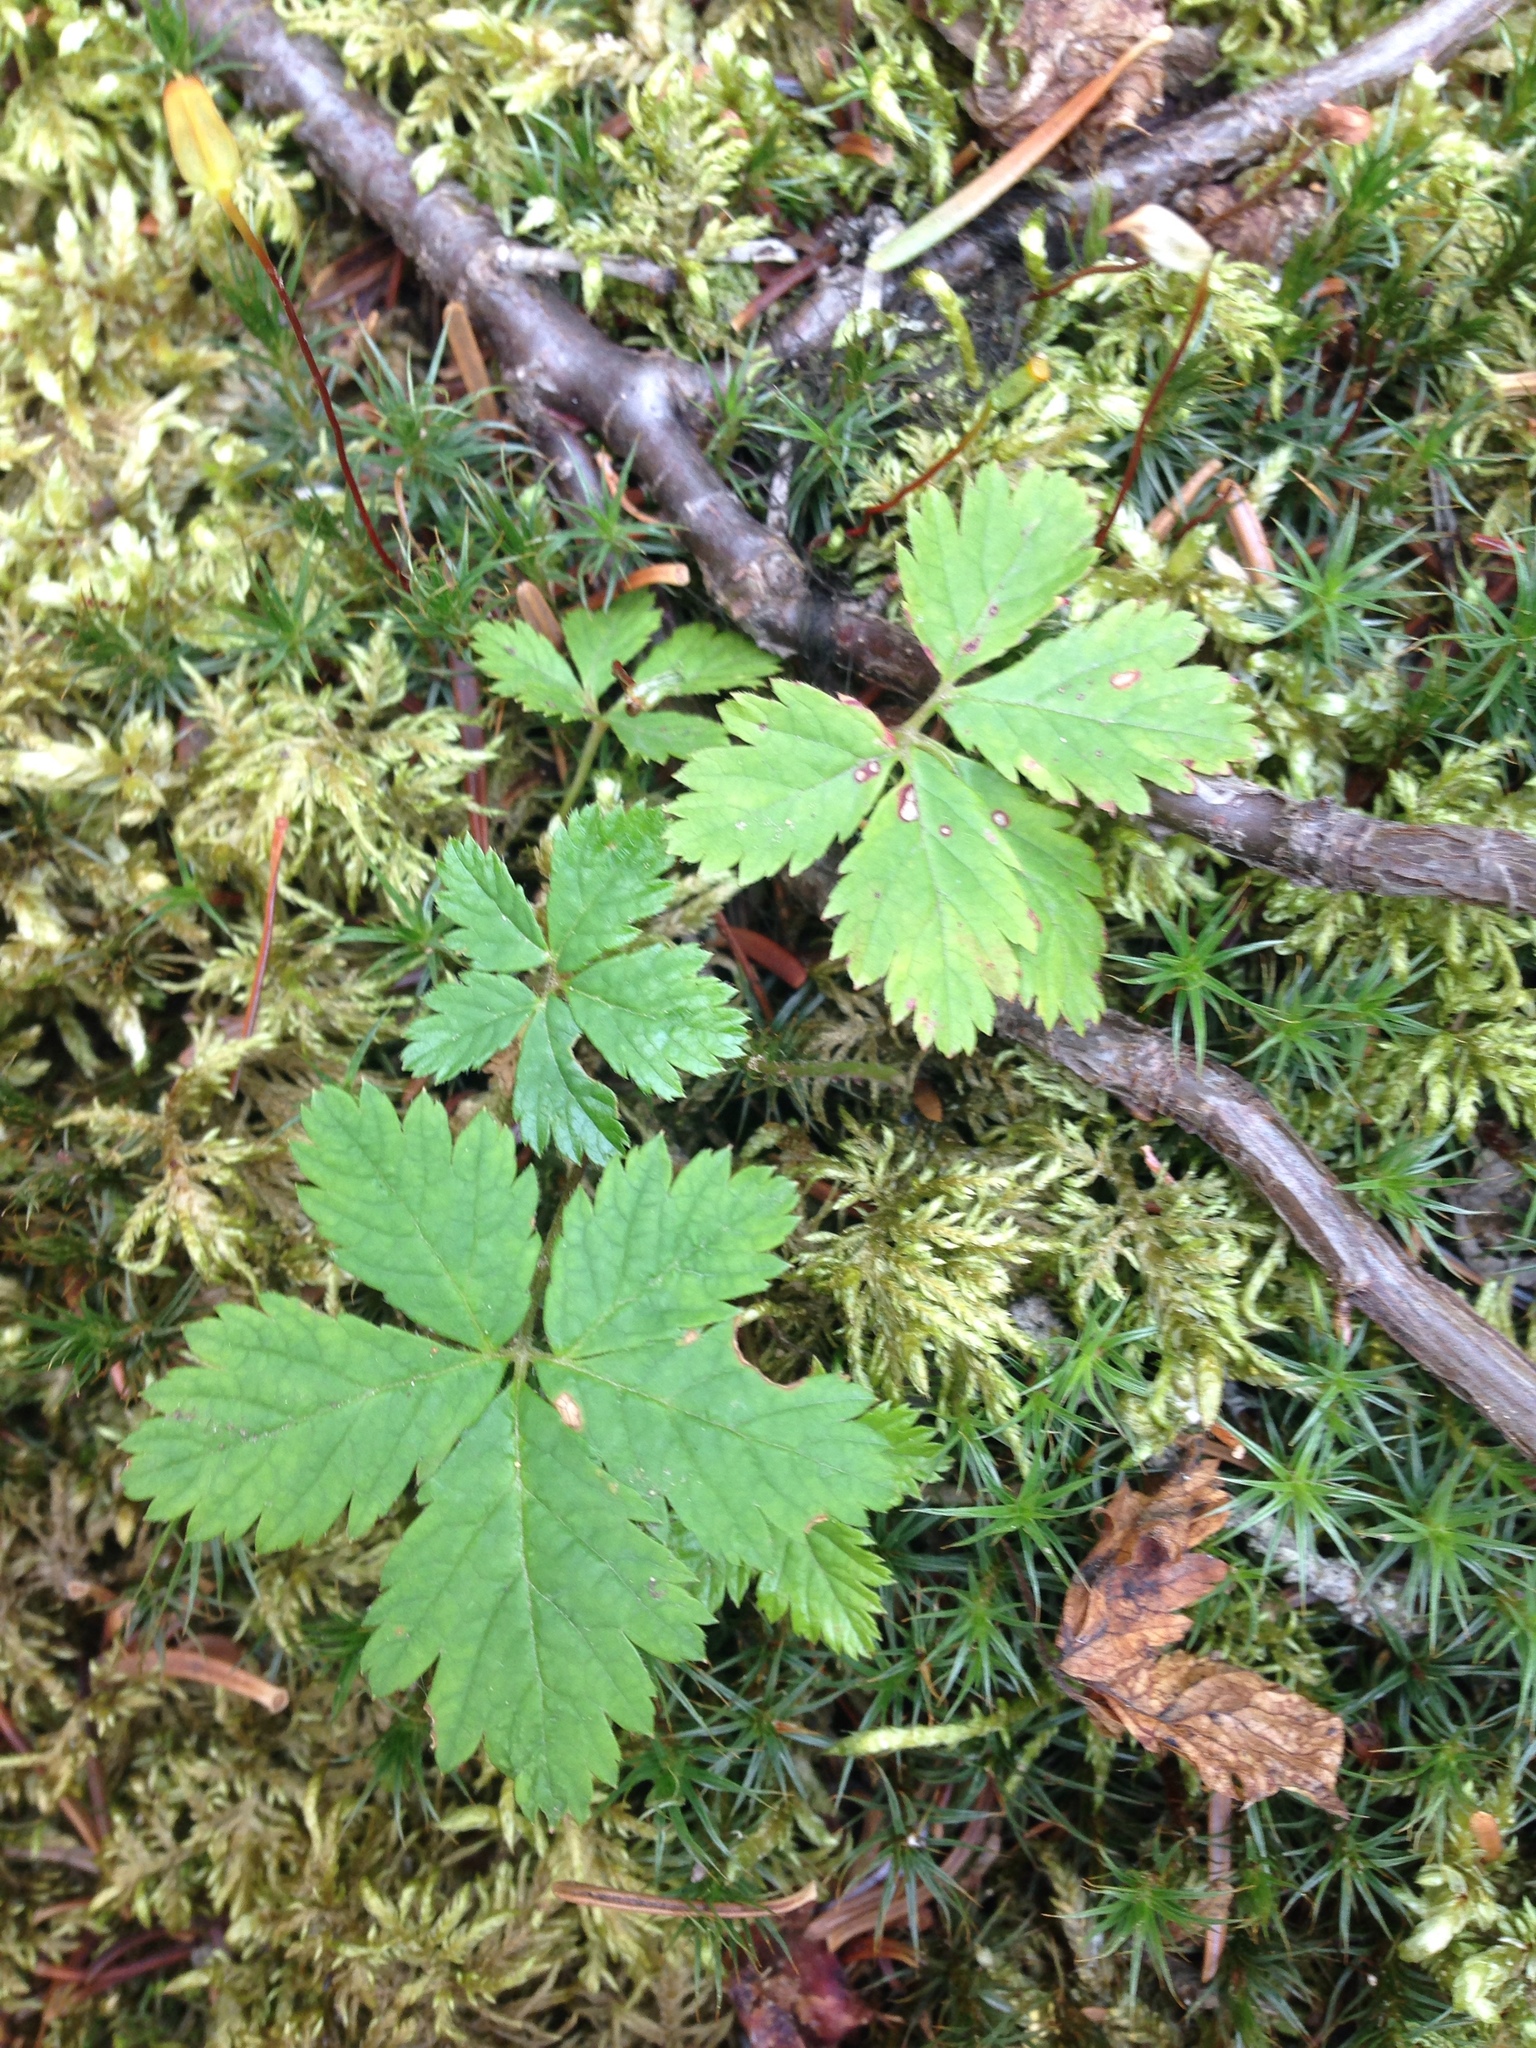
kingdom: Plantae
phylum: Tracheophyta
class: Magnoliopsida
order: Rosales
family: Rosaceae
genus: Rubus
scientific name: Rubus pedatus
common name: Creeping raspberry
